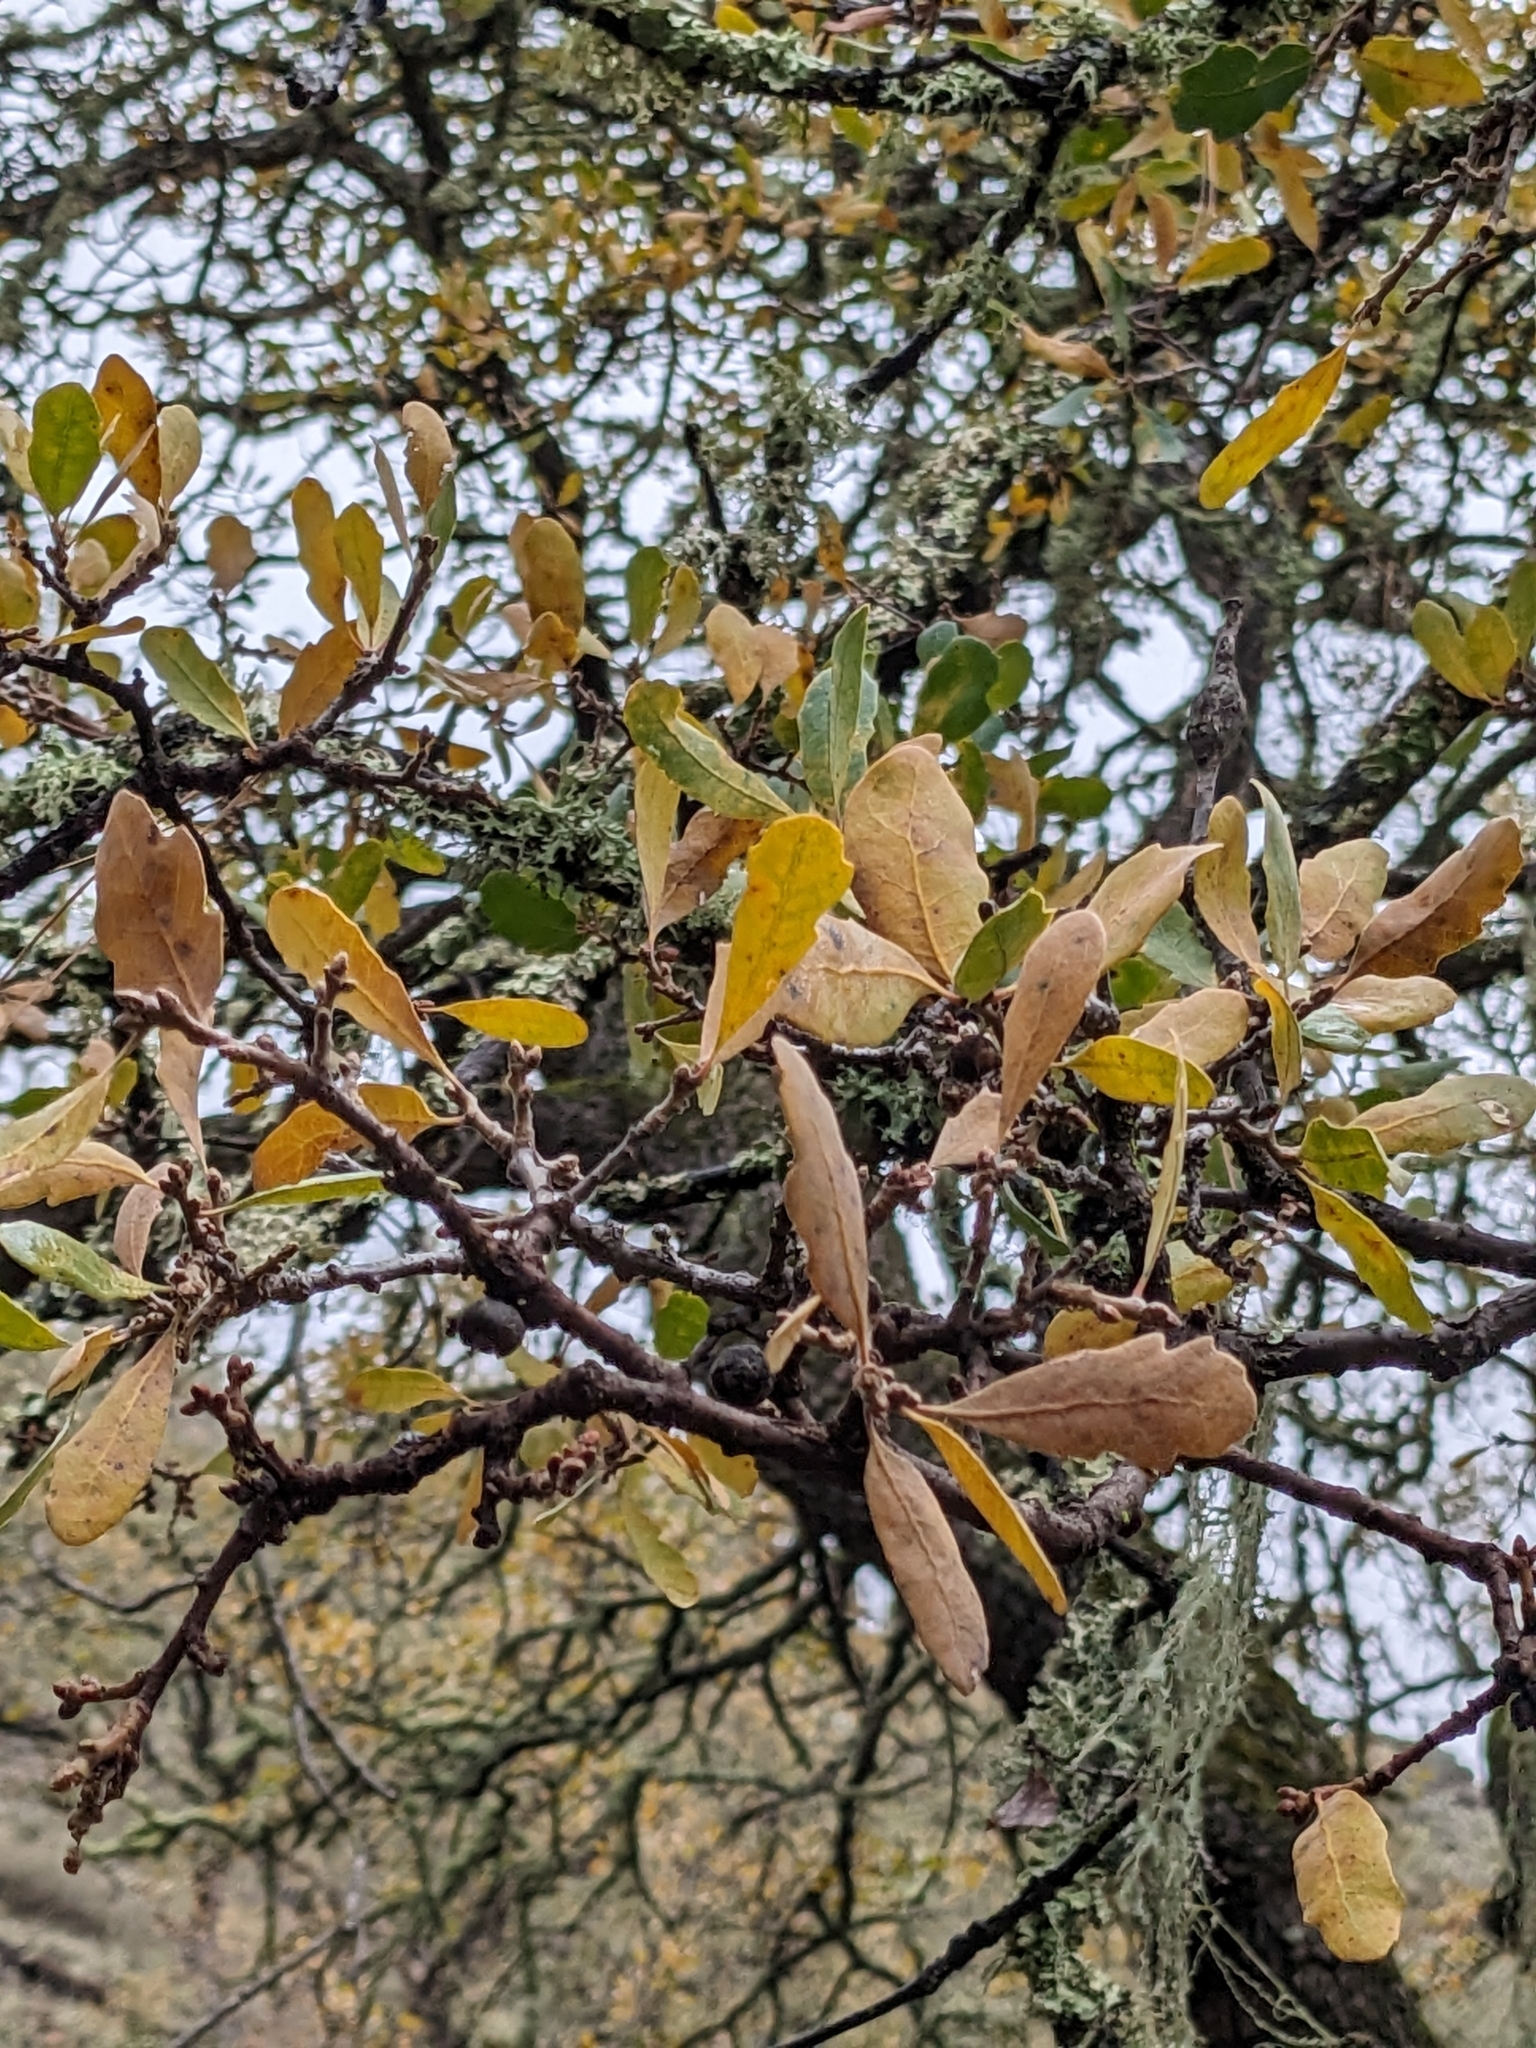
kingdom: Plantae
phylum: Tracheophyta
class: Magnoliopsida
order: Fagales
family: Fagaceae
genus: Quercus
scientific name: Quercus douglasii
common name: Blue oak
